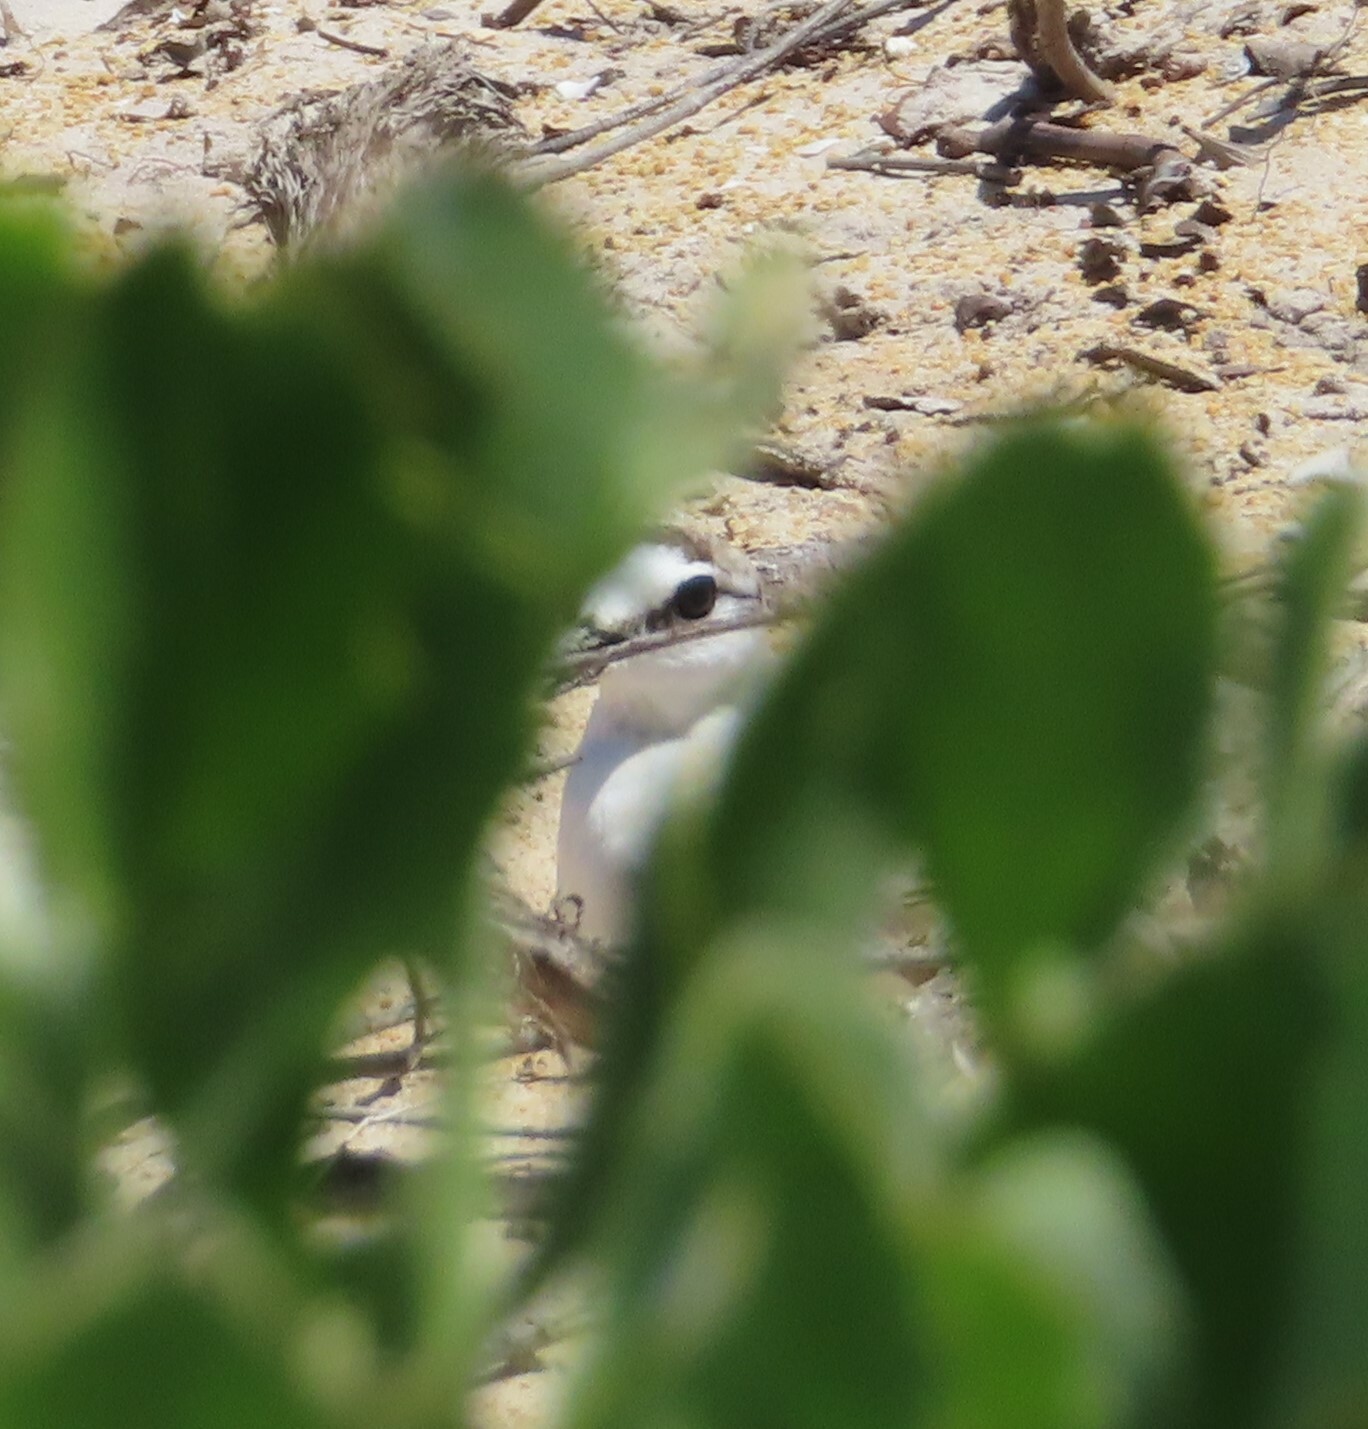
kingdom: Animalia
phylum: Chordata
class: Aves
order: Charadriiformes
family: Charadriidae
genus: Anarhynchus
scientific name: Anarhynchus
